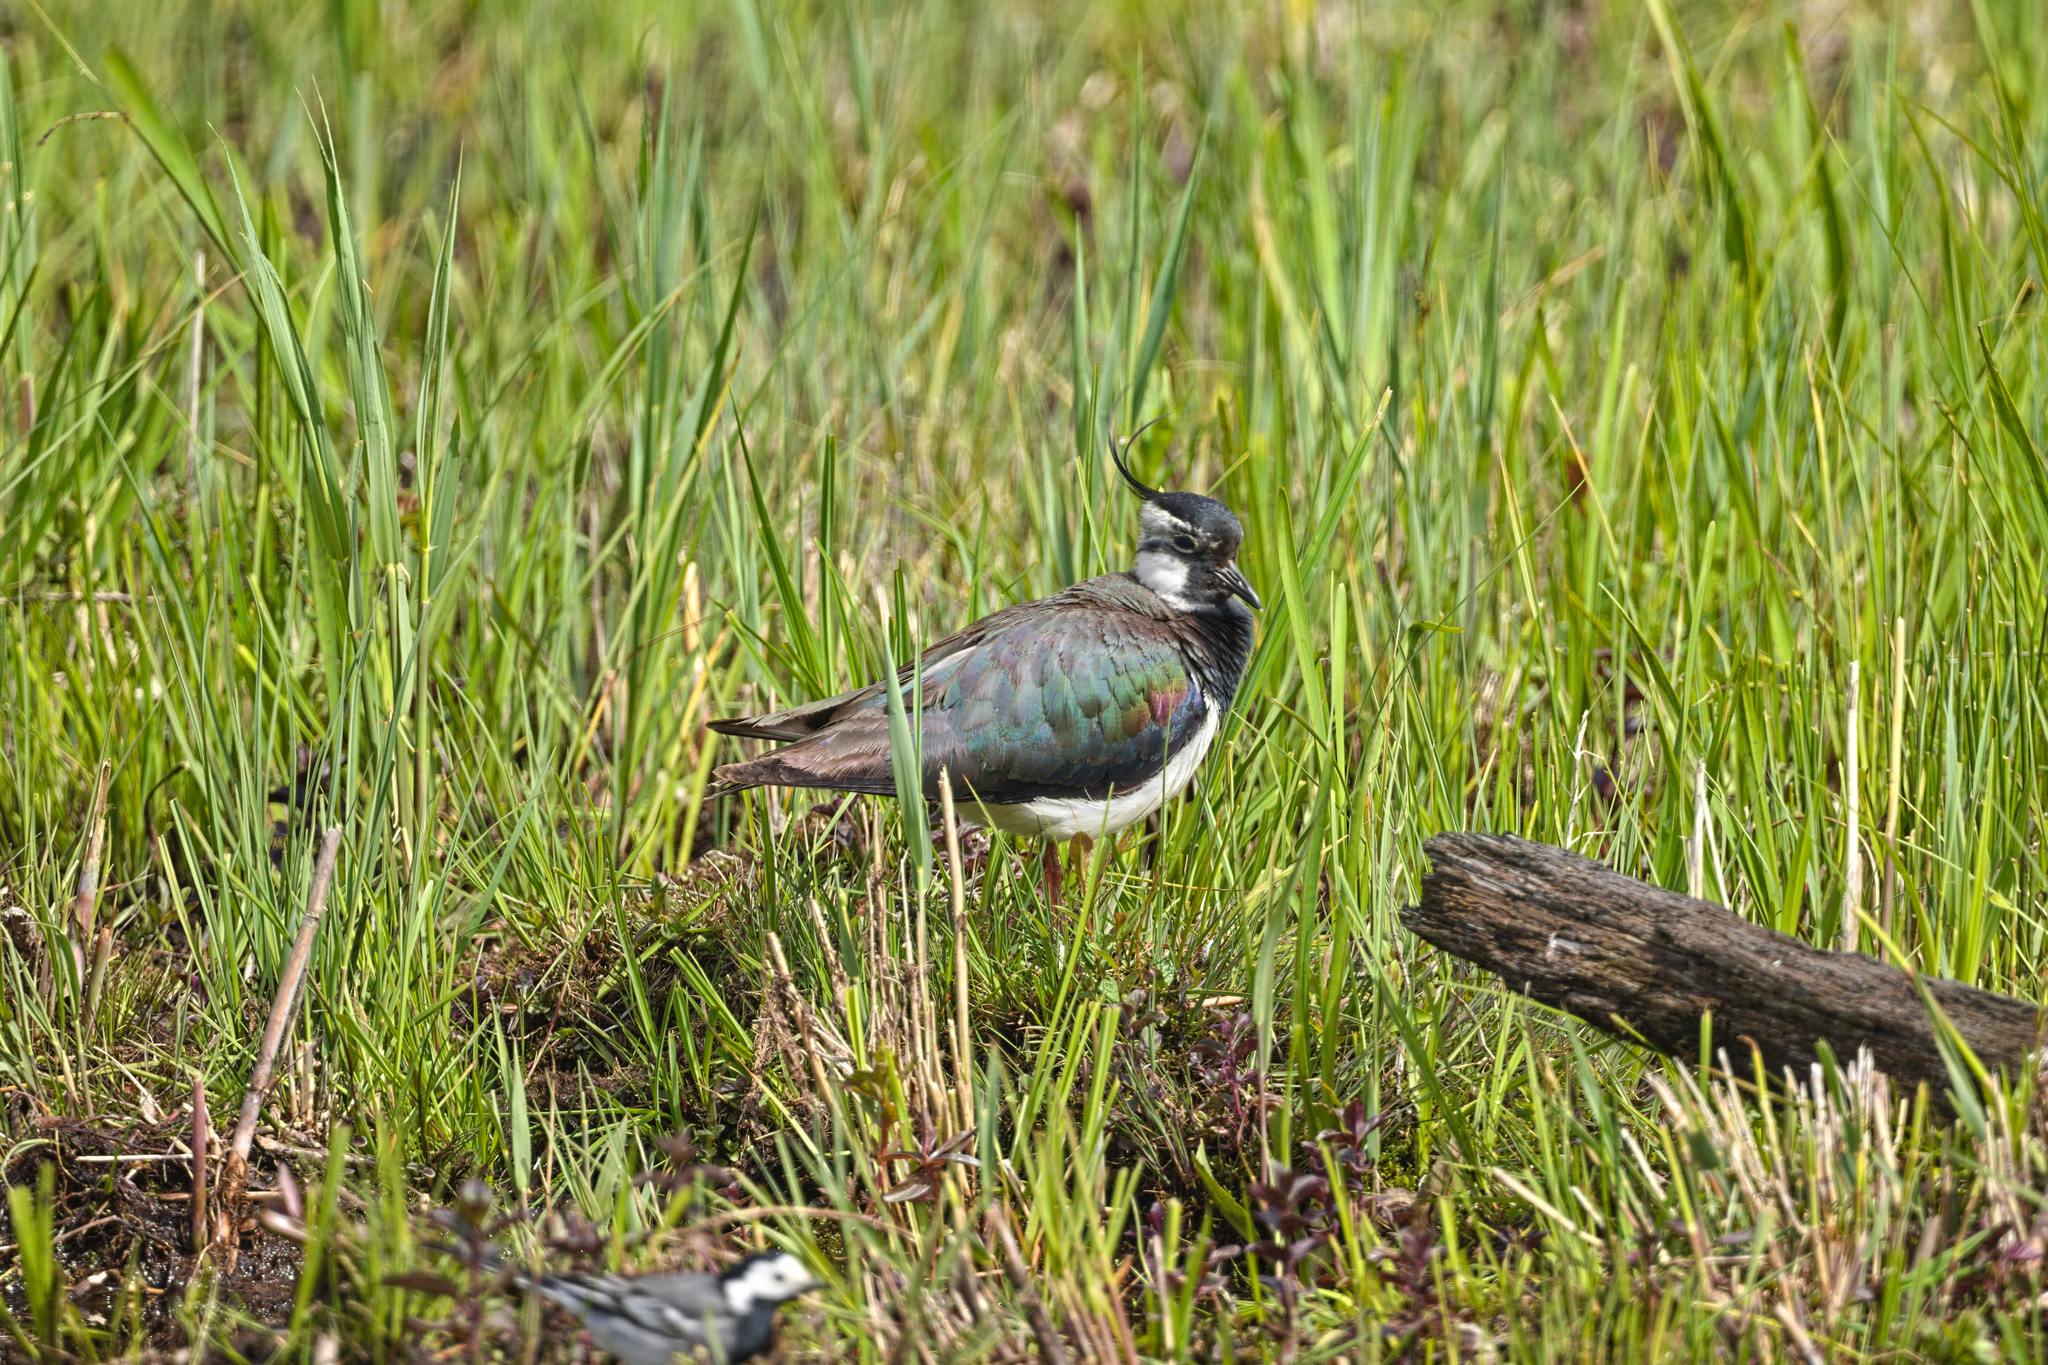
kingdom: Animalia
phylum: Chordata
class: Aves
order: Charadriiformes
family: Charadriidae
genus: Vanellus
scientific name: Vanellus vanellus
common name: Northern lapwing
